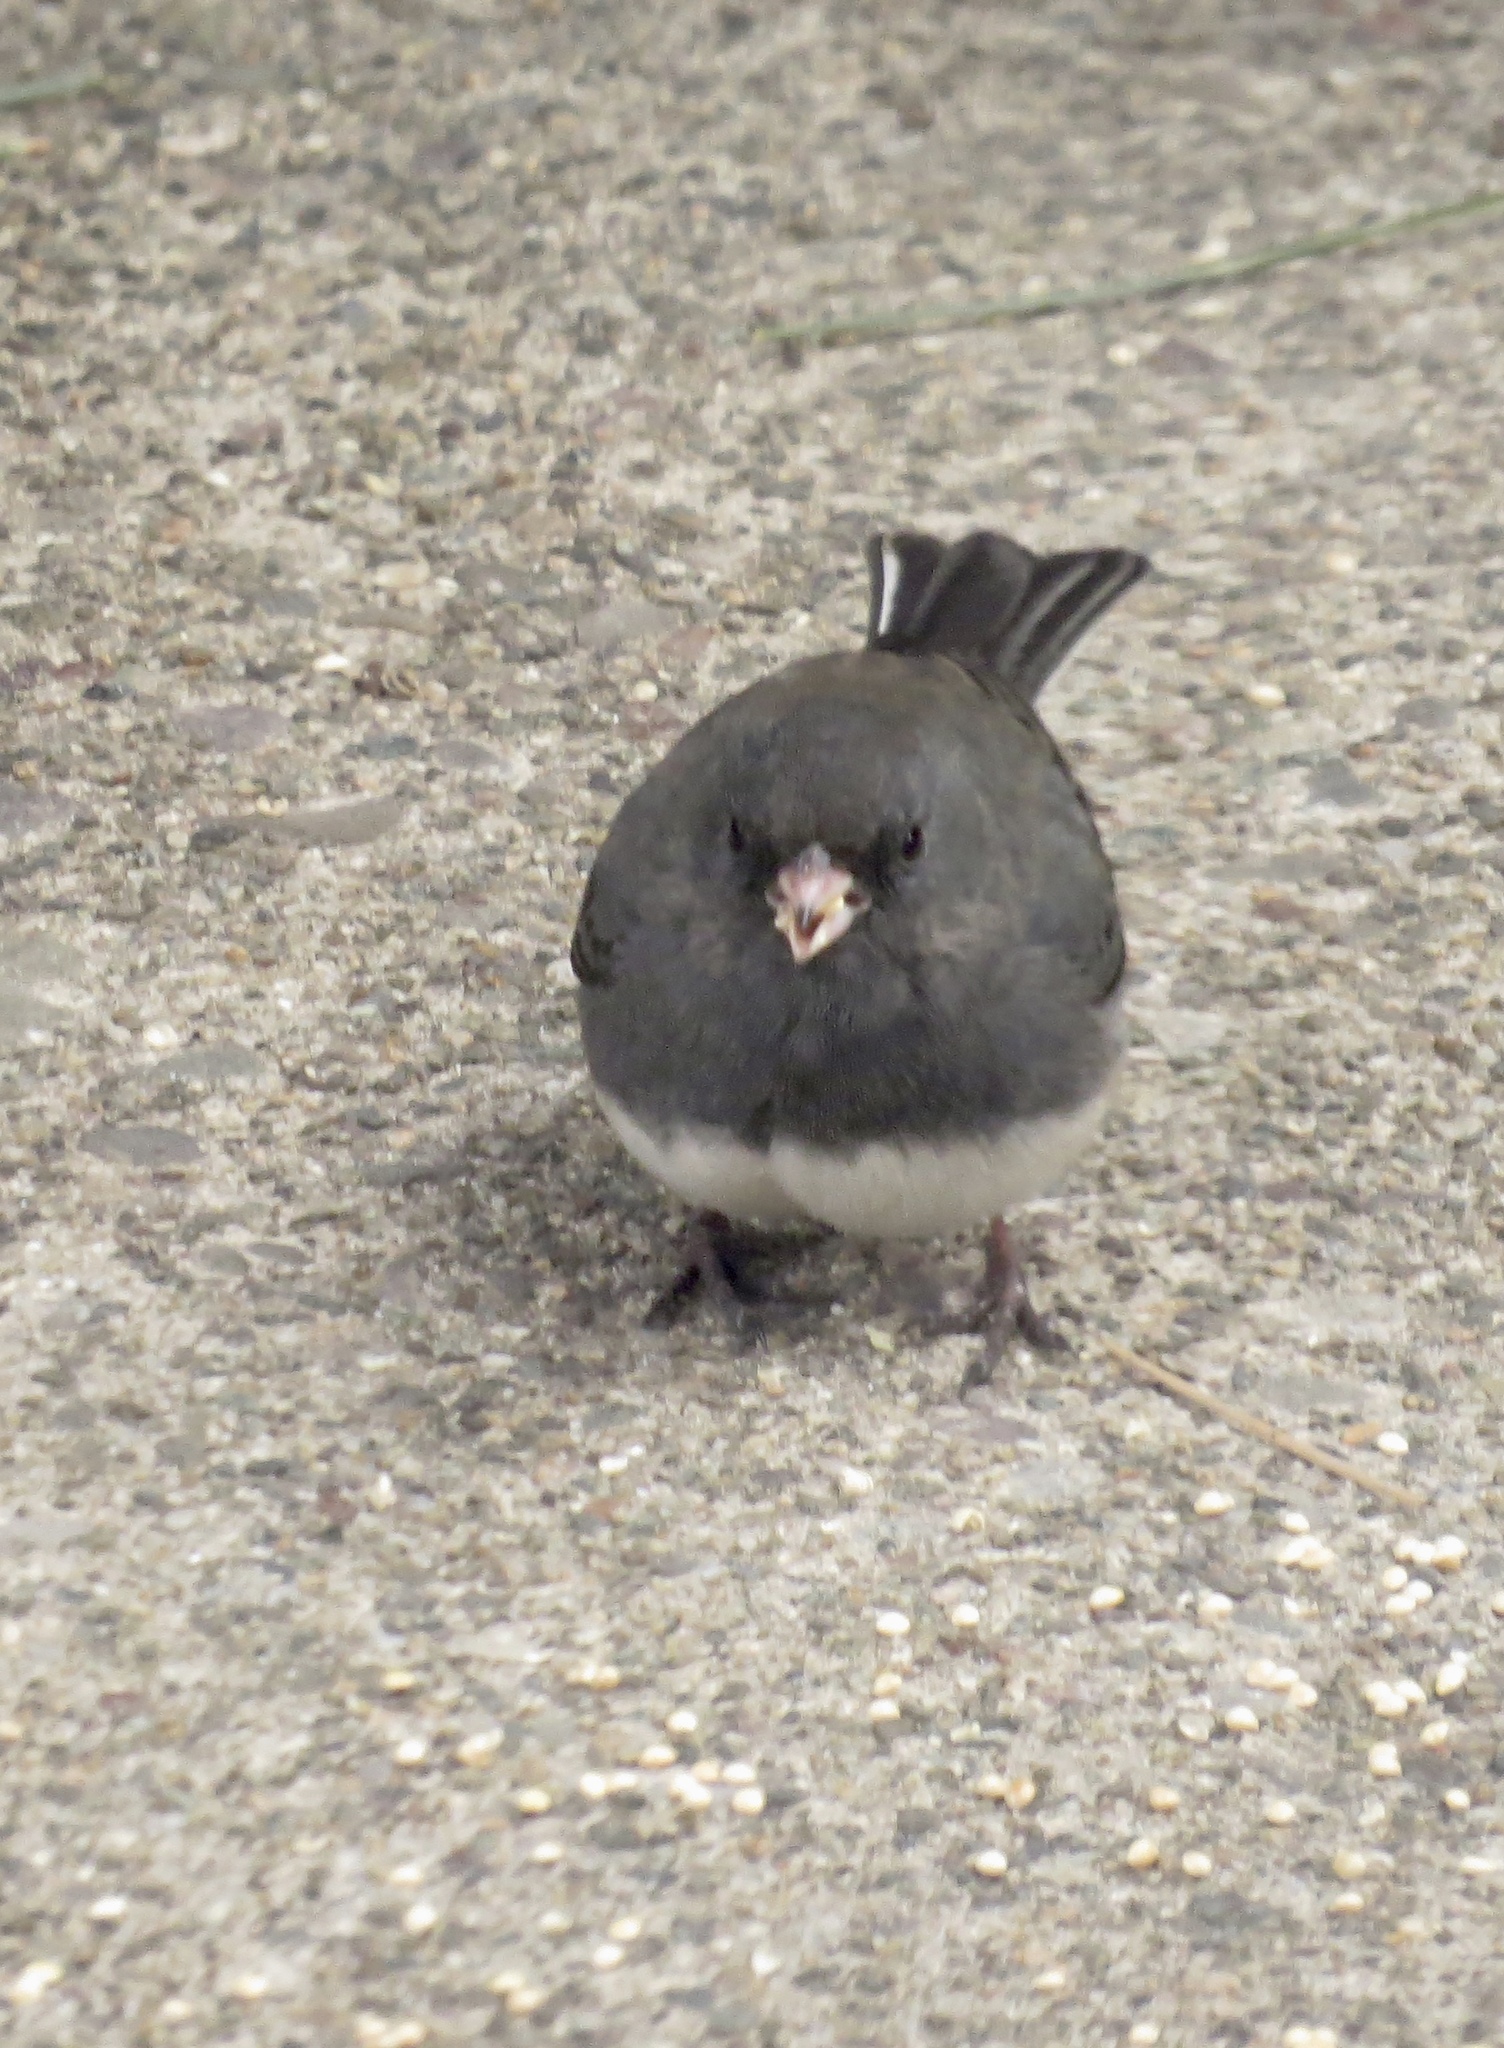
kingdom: Animalia
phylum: Chordata
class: Aves
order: Passeriformes
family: Passerellidae
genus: Junco
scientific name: Junco hyemalis
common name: Dark-eyed junco
